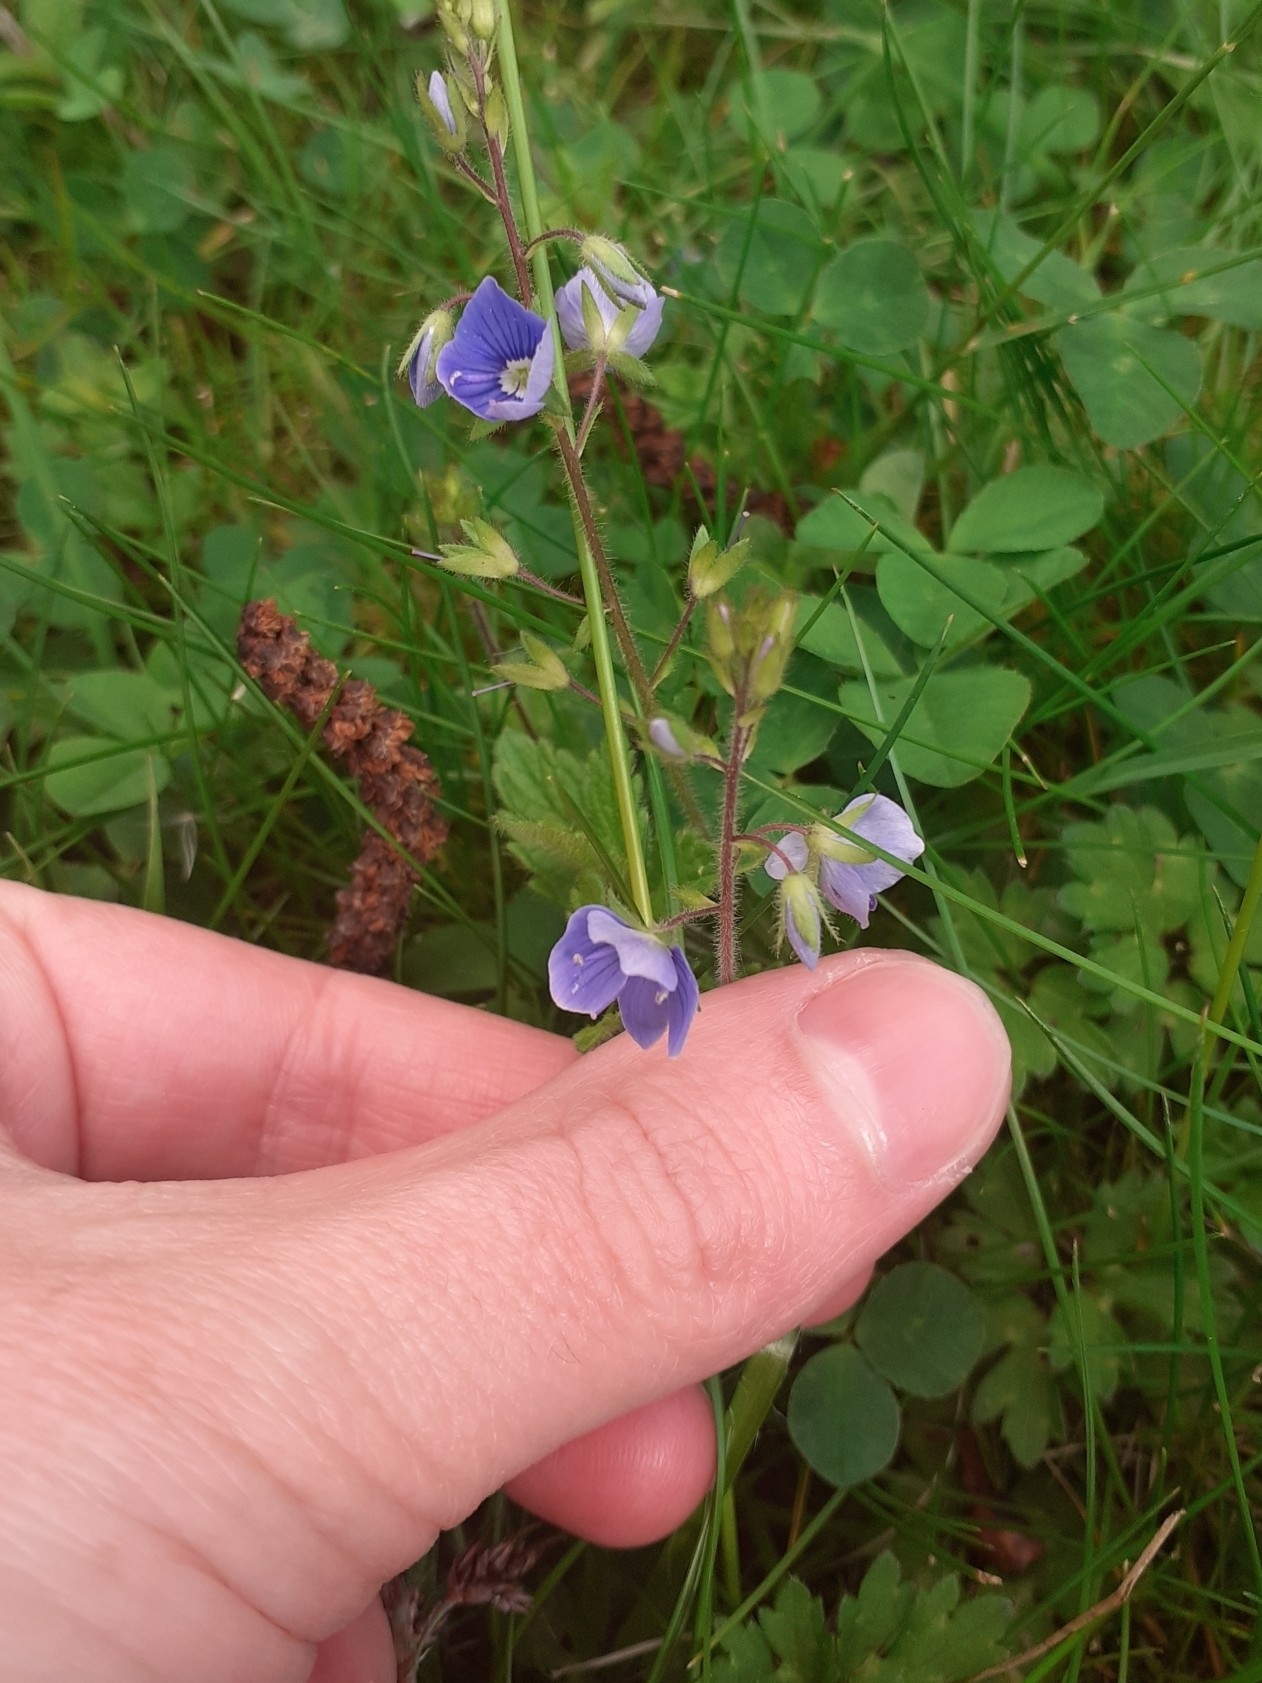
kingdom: Plantae
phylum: Tracheophyta
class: Magnoliopsida
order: Lamiales
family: Plantaginaceae
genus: Veronica
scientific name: Veronica chamaedrys
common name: Germander speedwell
